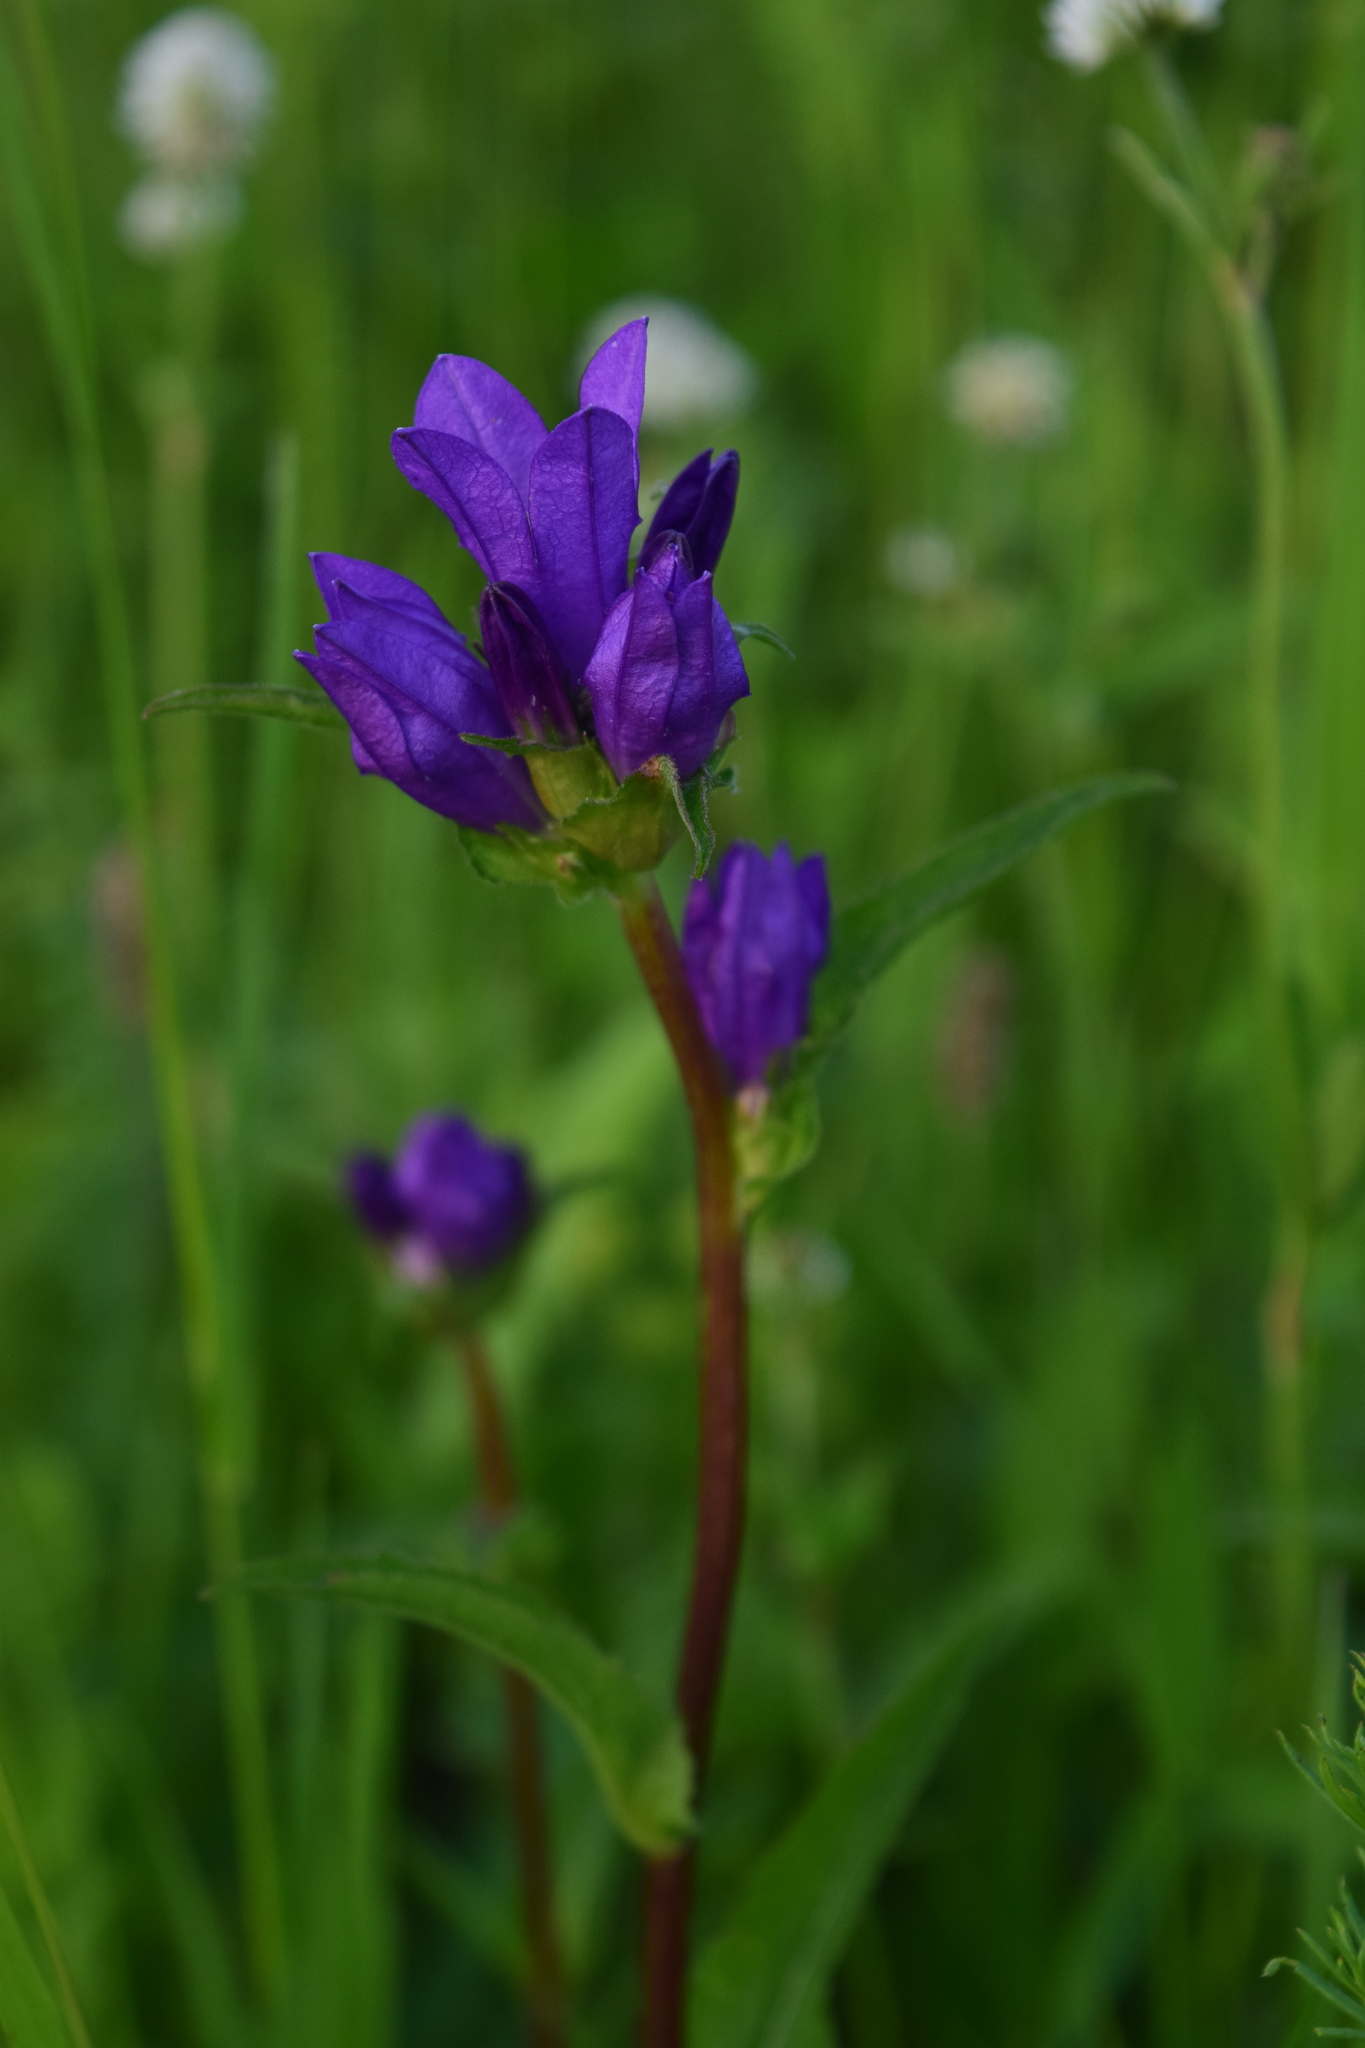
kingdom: Plantae
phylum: Tracheophyta
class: Magnoliopsida
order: Asterales
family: Campanulaceae
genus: Campanula
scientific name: Campanula glomerata
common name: Clustered bellflower
